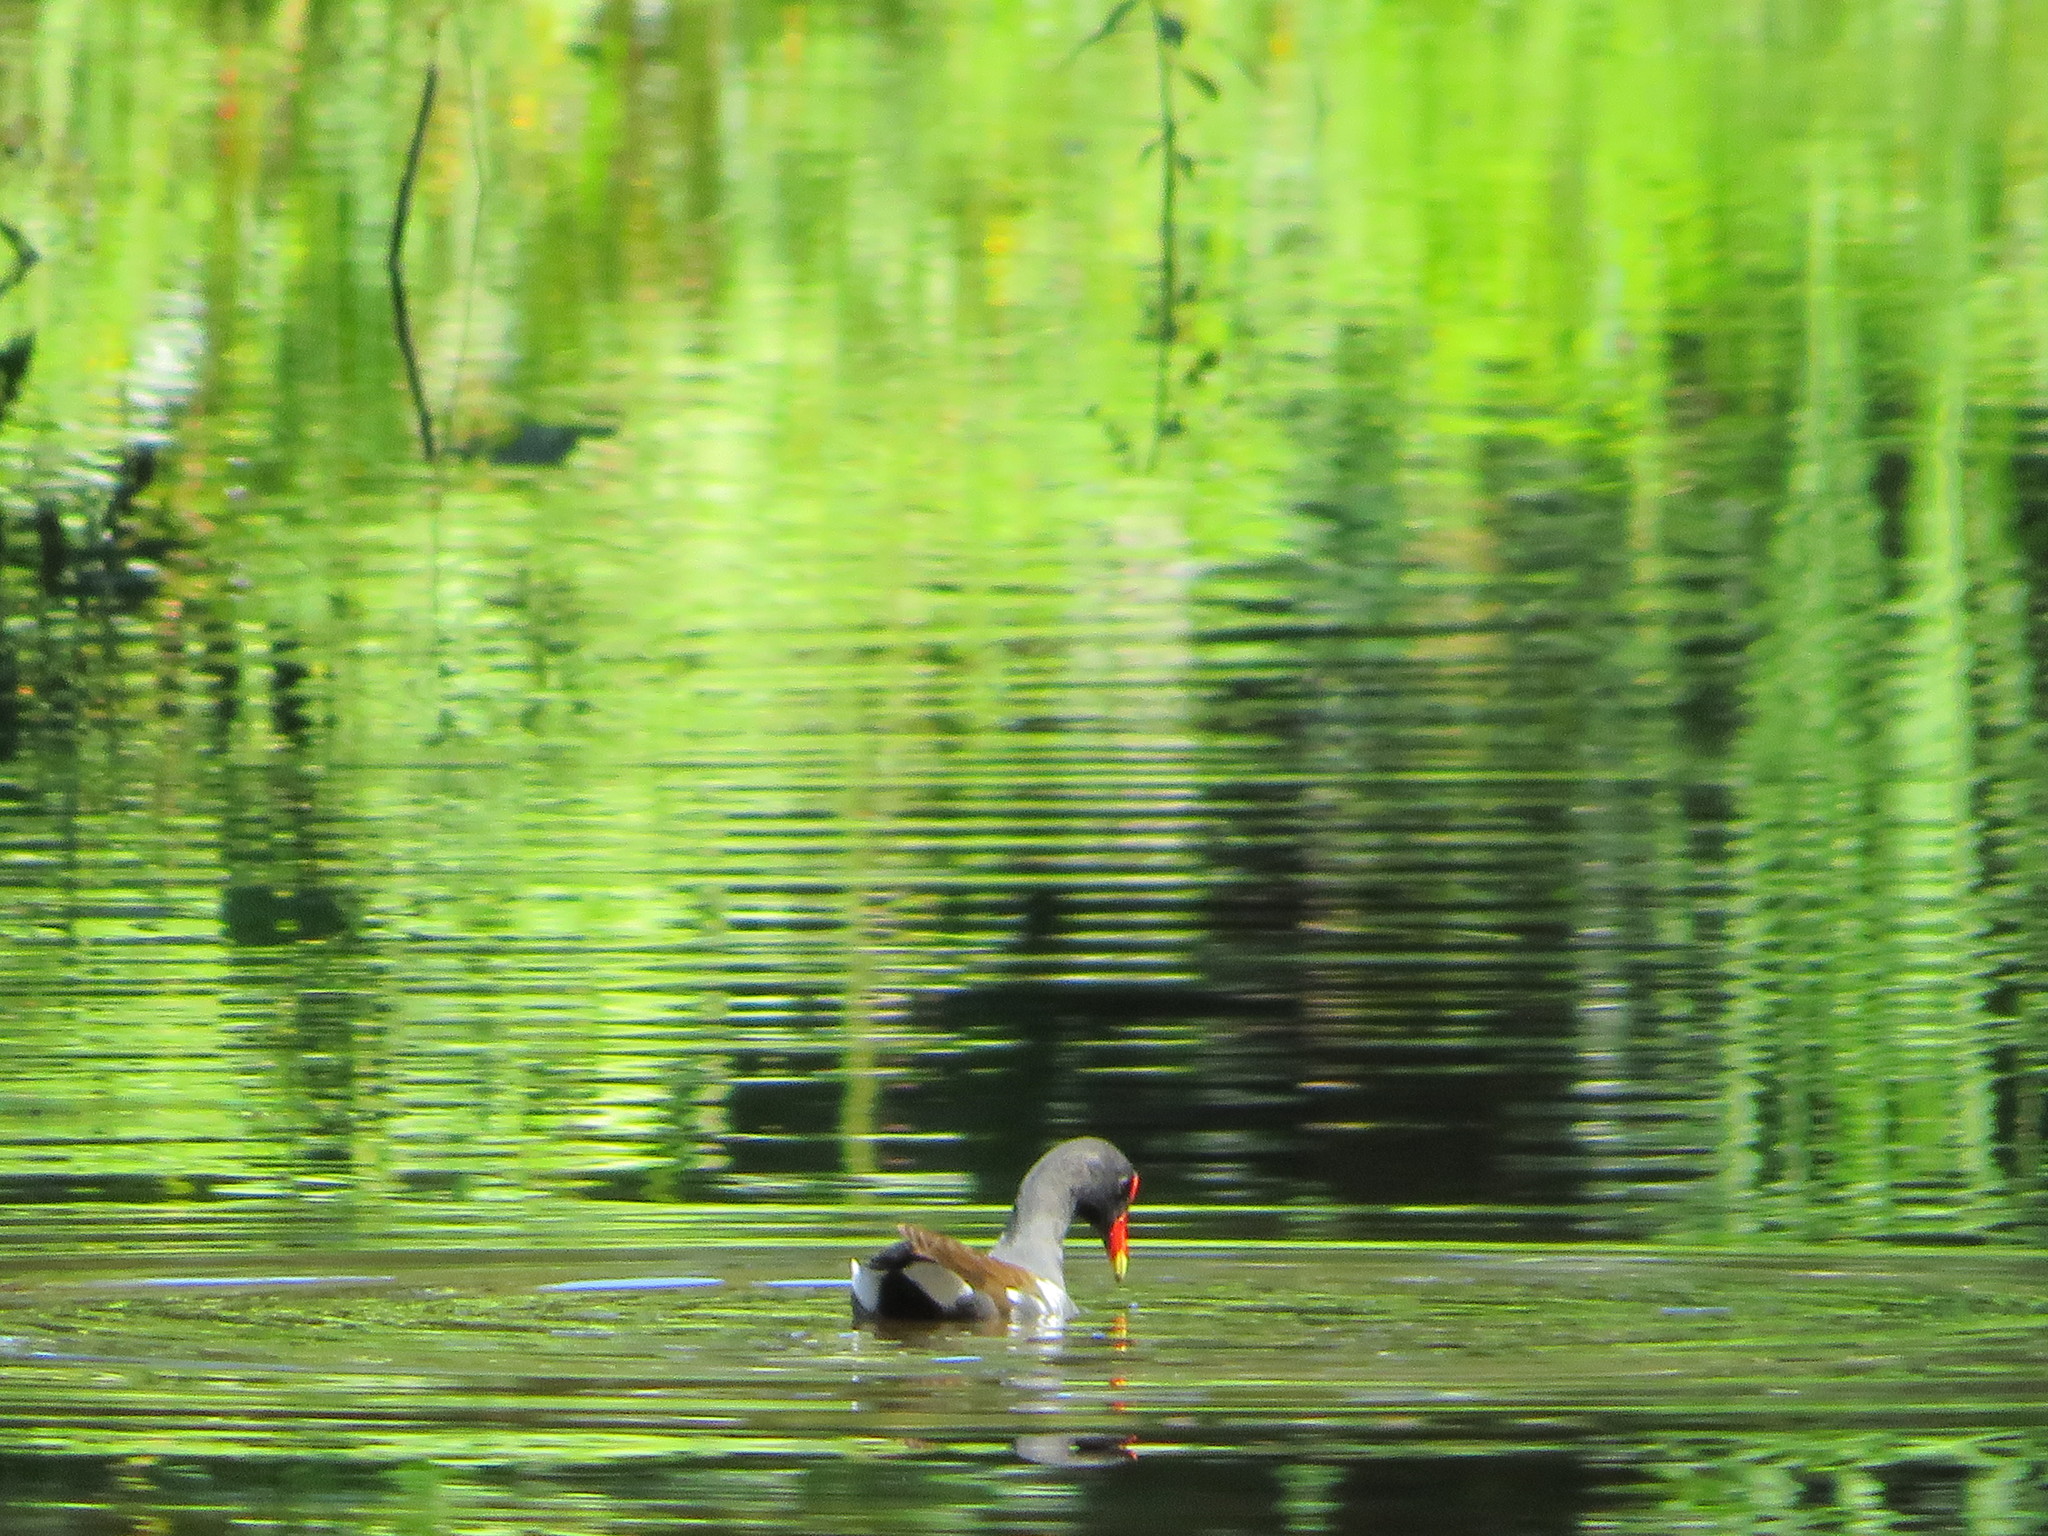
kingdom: Animalia
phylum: Chordata
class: Aves
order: Gruiformes
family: Rallidae
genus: Gallinula
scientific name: Gallinula chloropus
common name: Common moorhen
